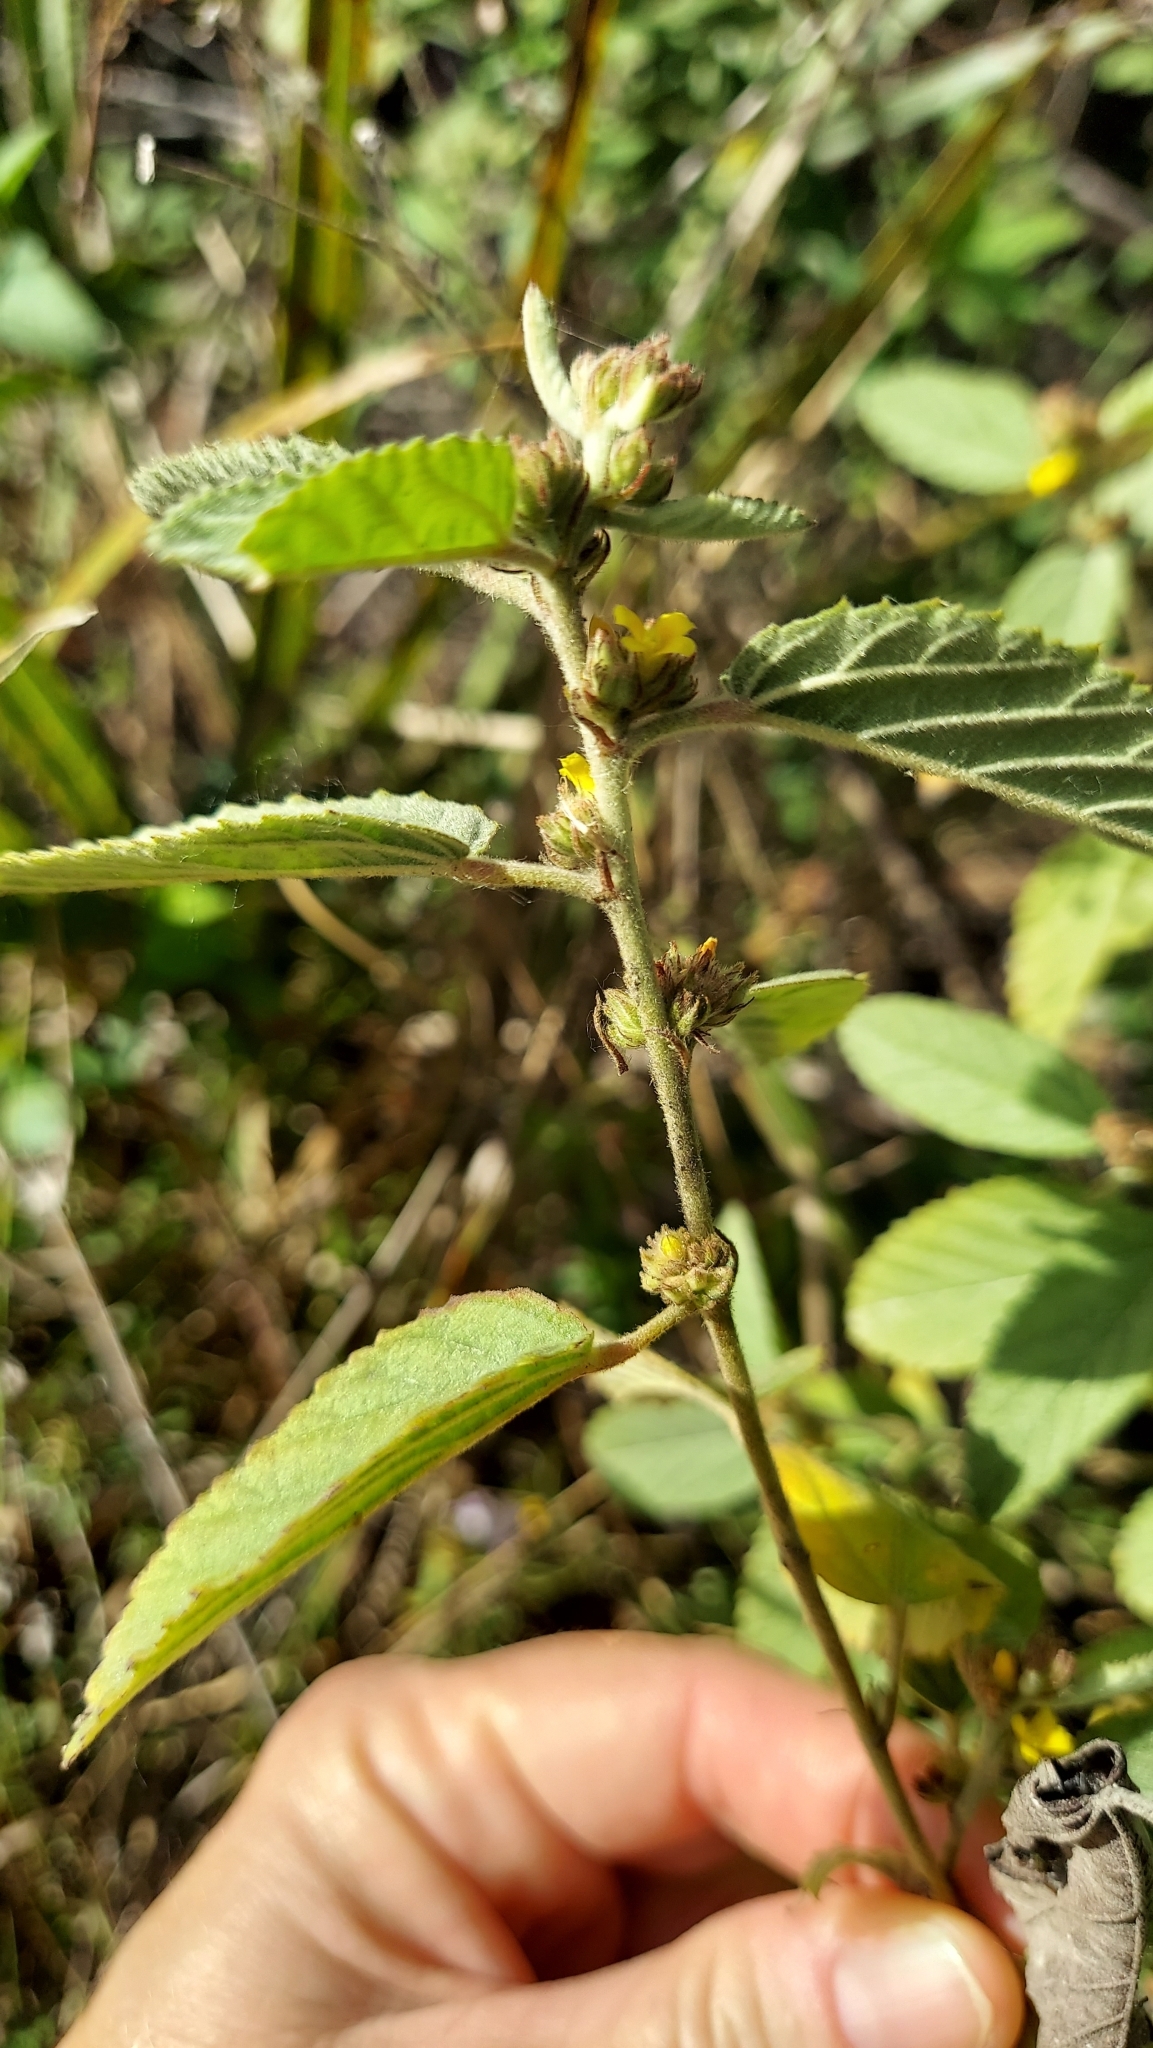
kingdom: Plantae
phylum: Tracheophyta
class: Magnoliopsida
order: Malvales
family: Malvaceae
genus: Waltheria
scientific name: Waltheria indica
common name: Leather-coat
